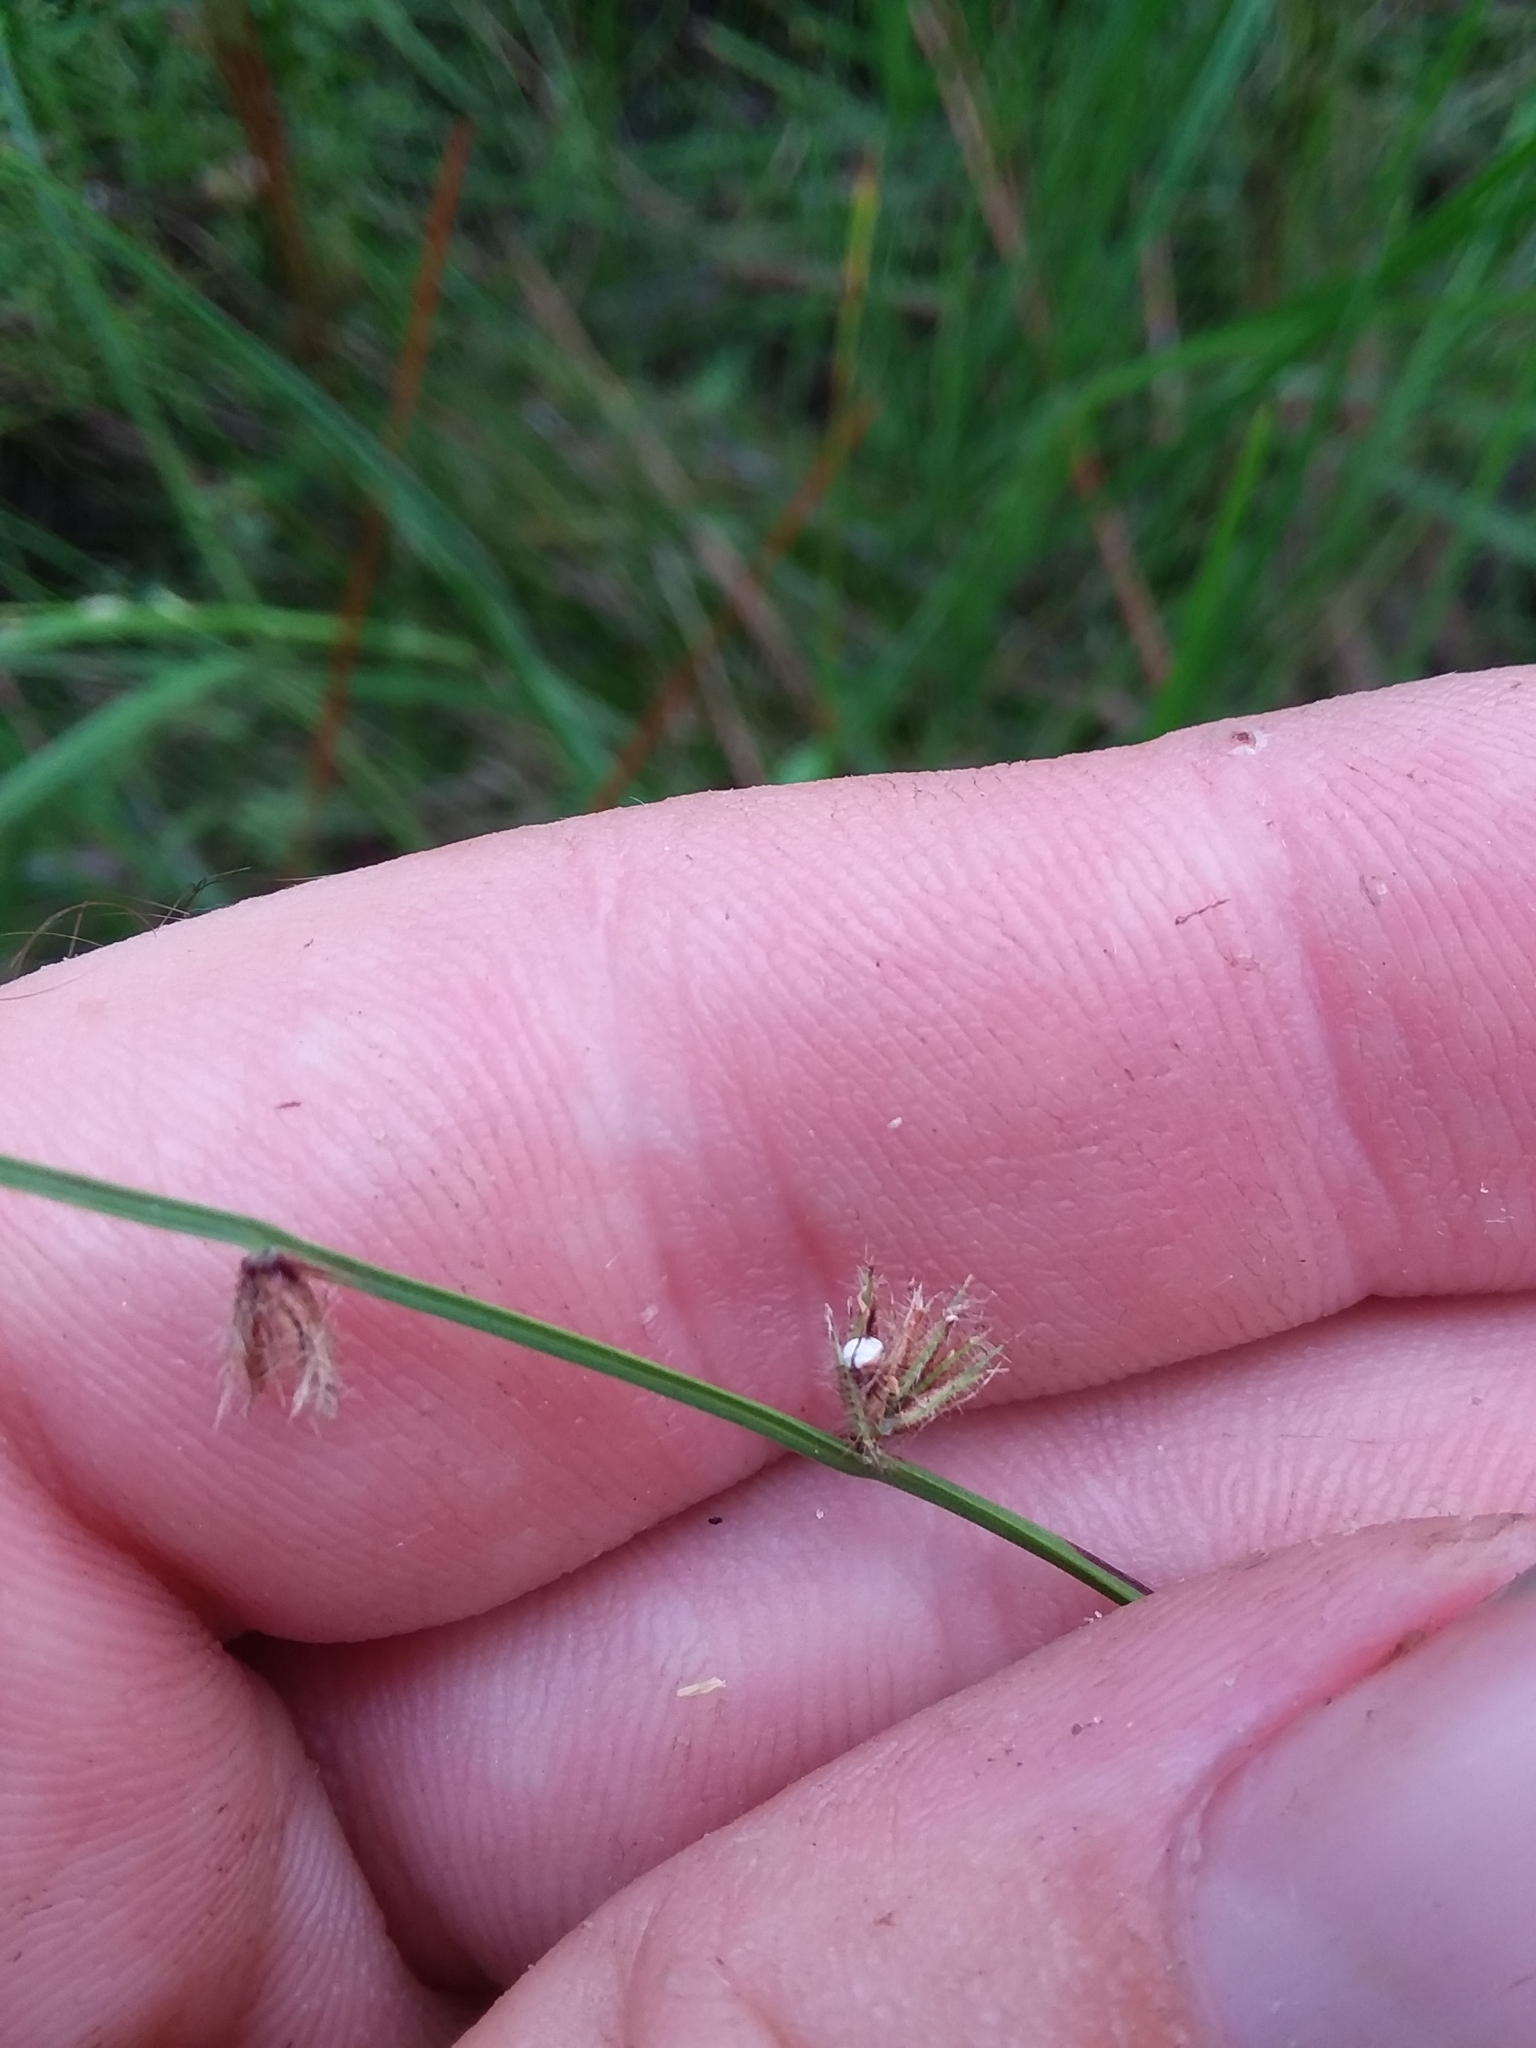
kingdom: Plantae
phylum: Tracheophyta
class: Liliopsida
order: Poales
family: Cyperaceae
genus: Scleria
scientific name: Scleria distans
